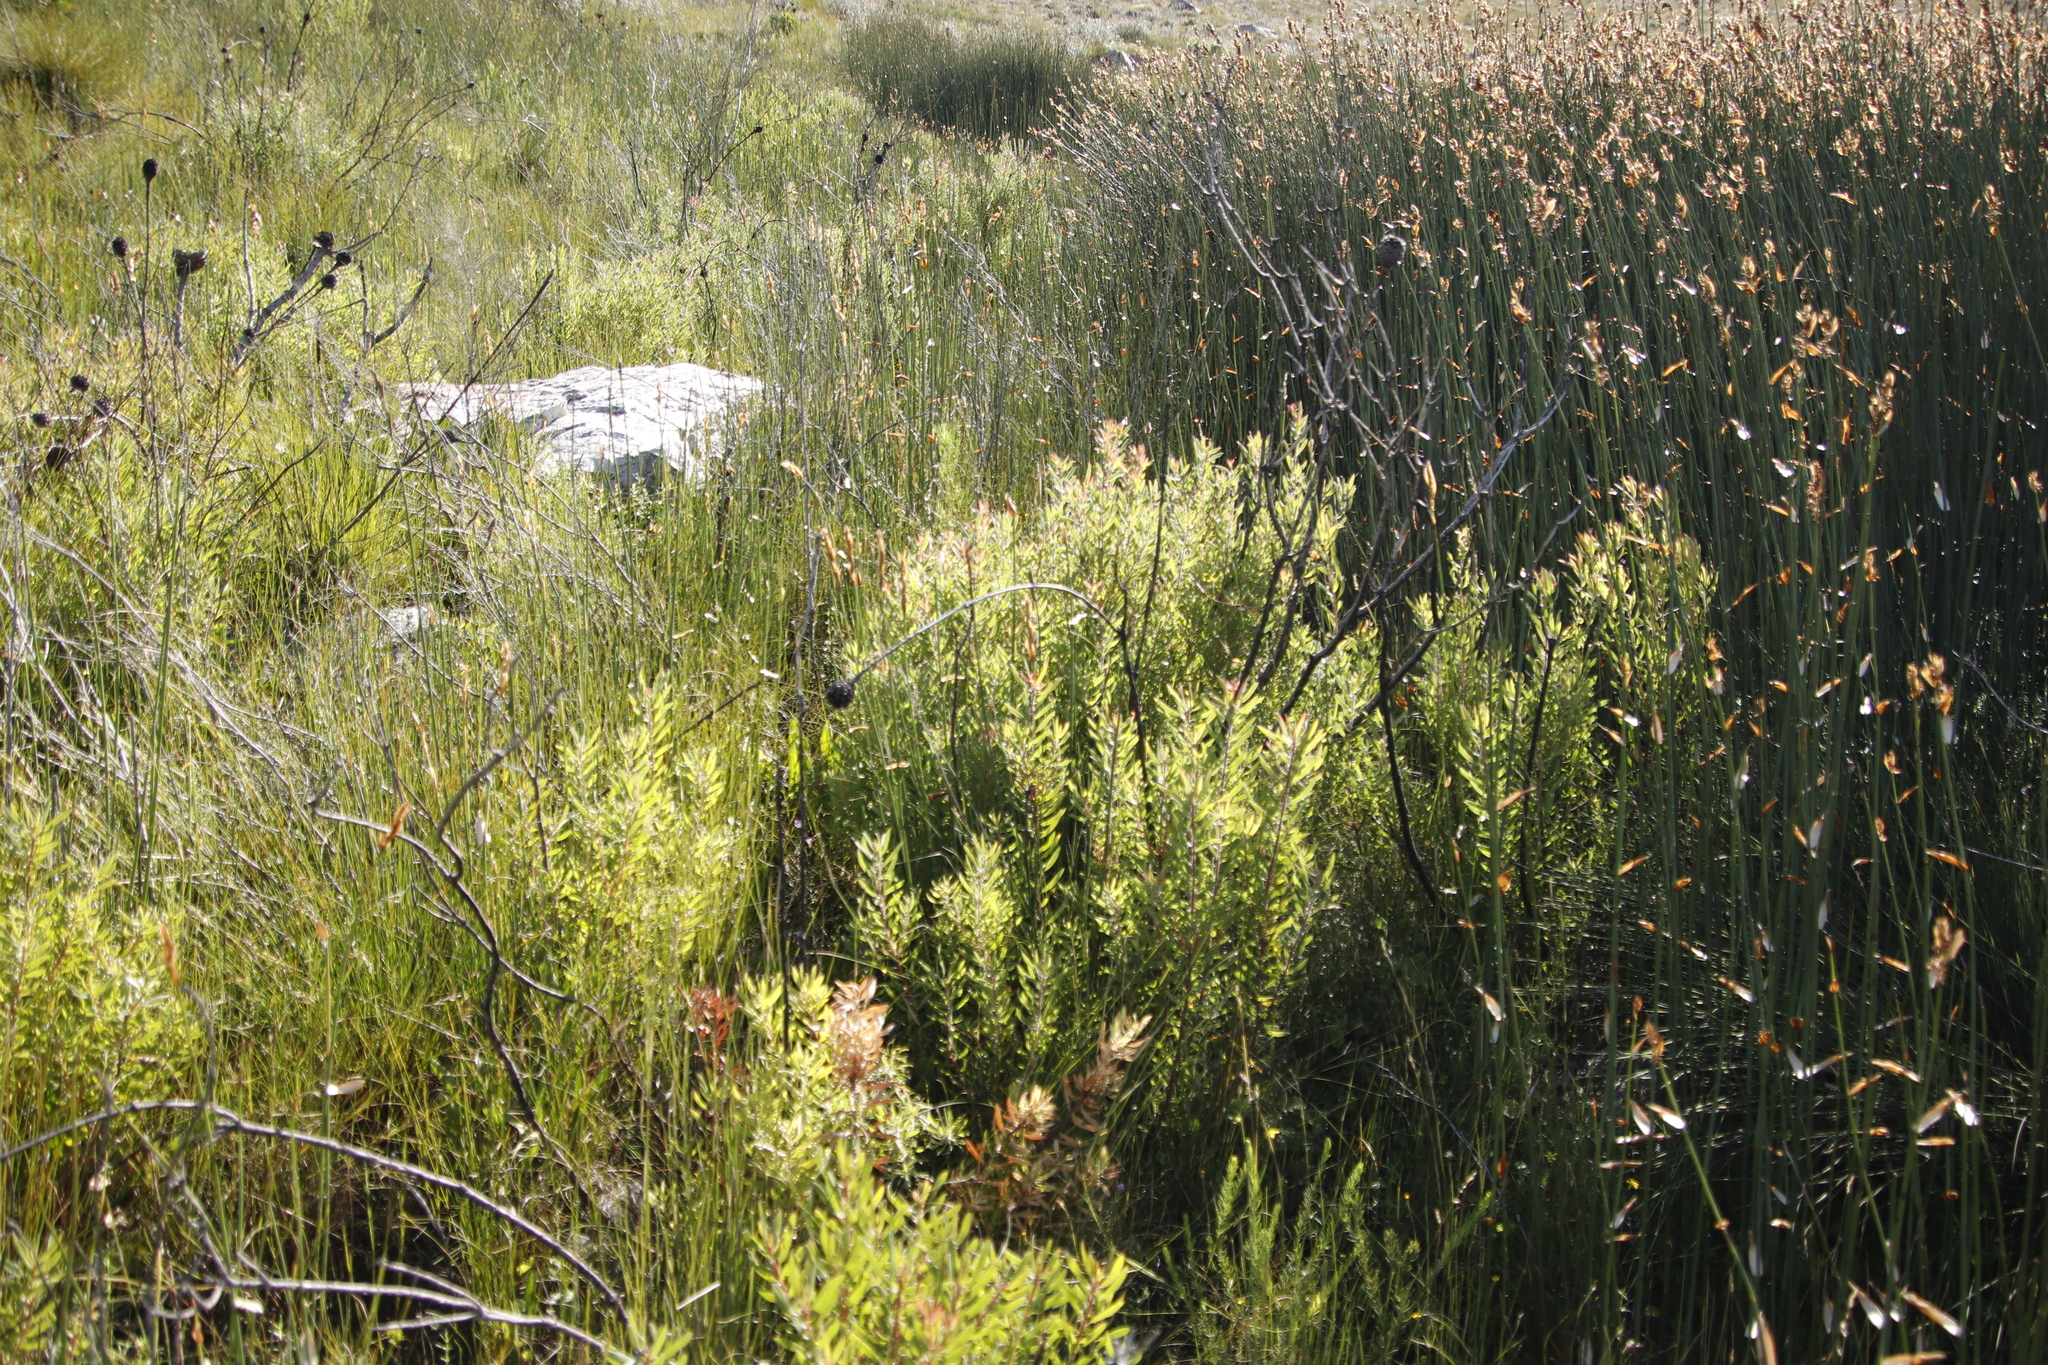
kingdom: Plantae
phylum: Tracheophyta
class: Magnoliopsida
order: Proteales
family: Proteaceae
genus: Leucadendron
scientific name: Leucadendron spissifolium
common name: Spear-leaf conebush
